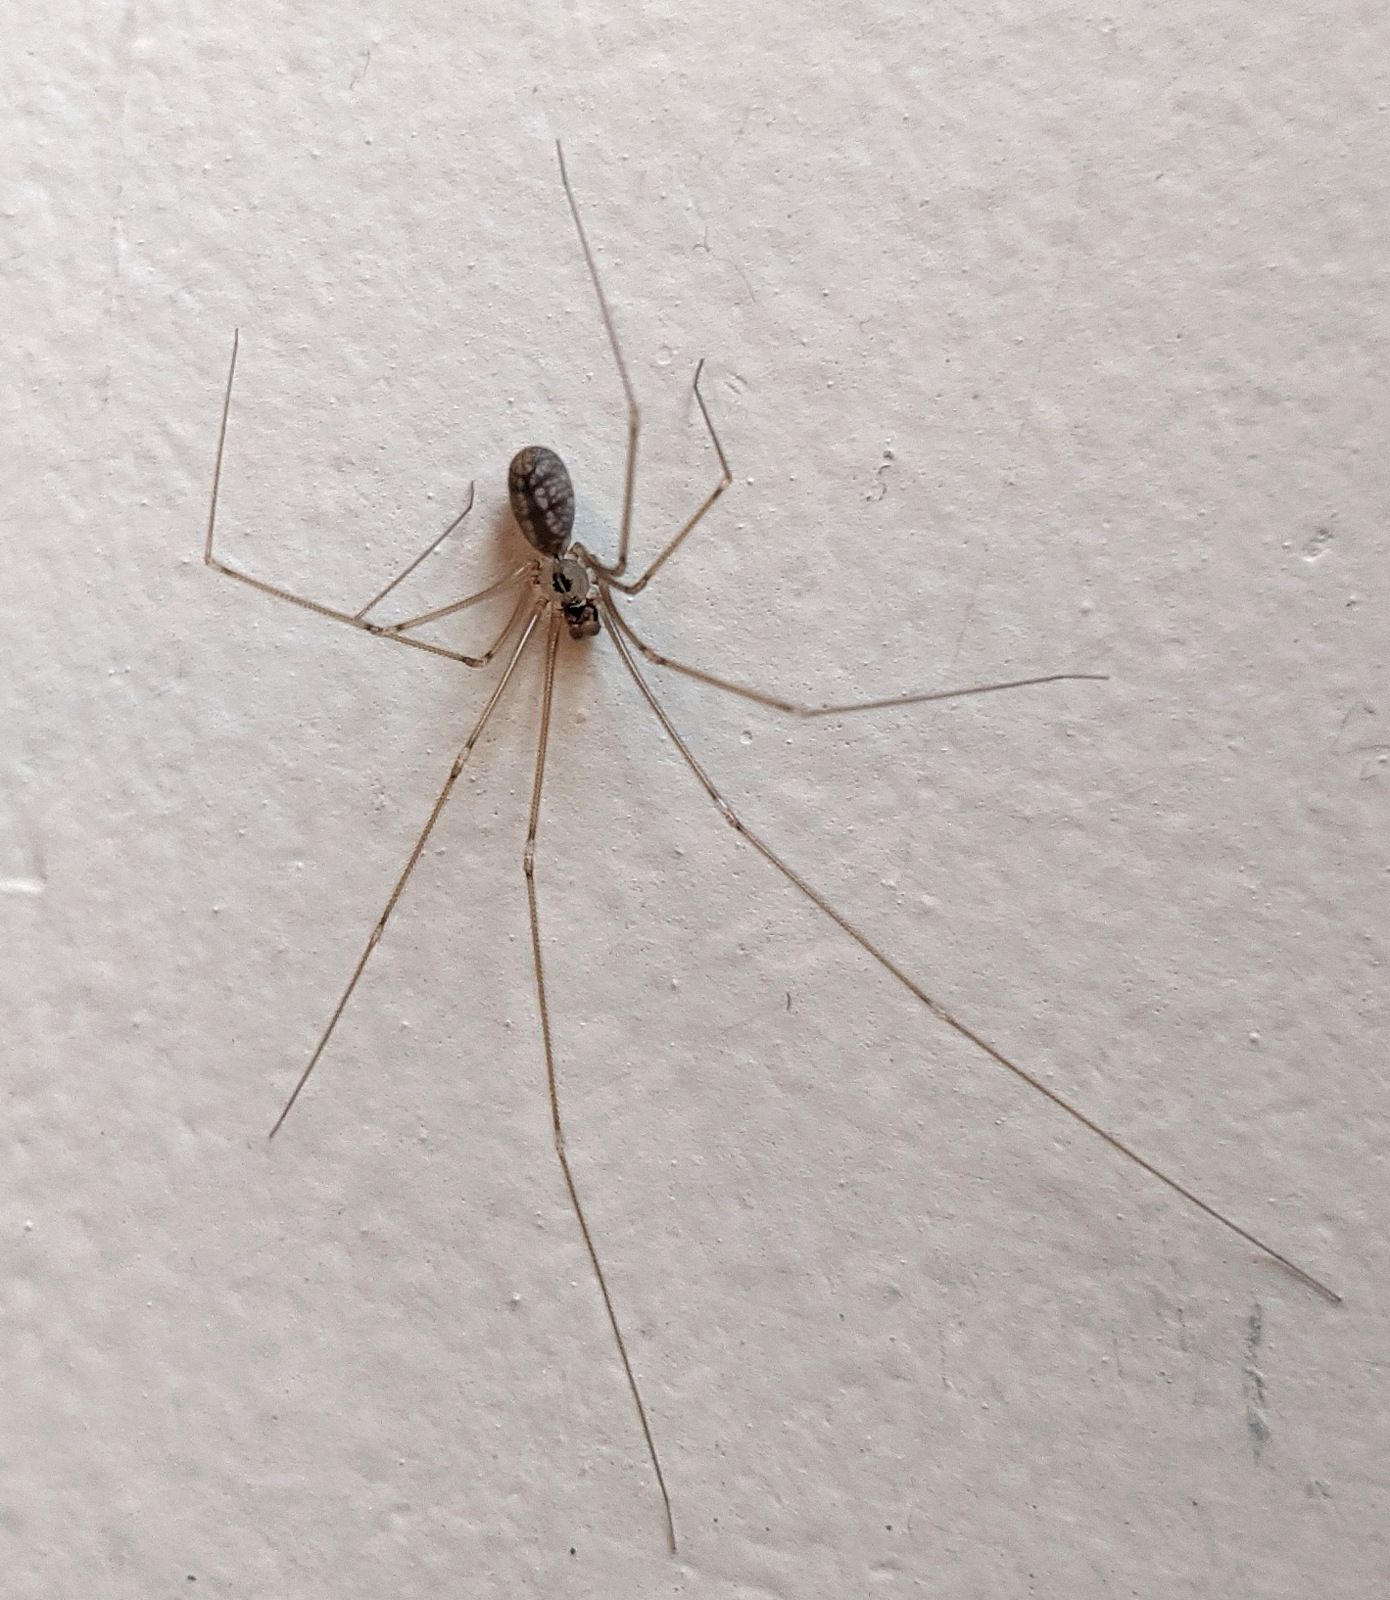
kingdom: Animalia
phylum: Arthropoda
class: Arachnida
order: Araneae
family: Pholcidae
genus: Pholcus
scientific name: Pholcus manueli
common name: Cellar spider
